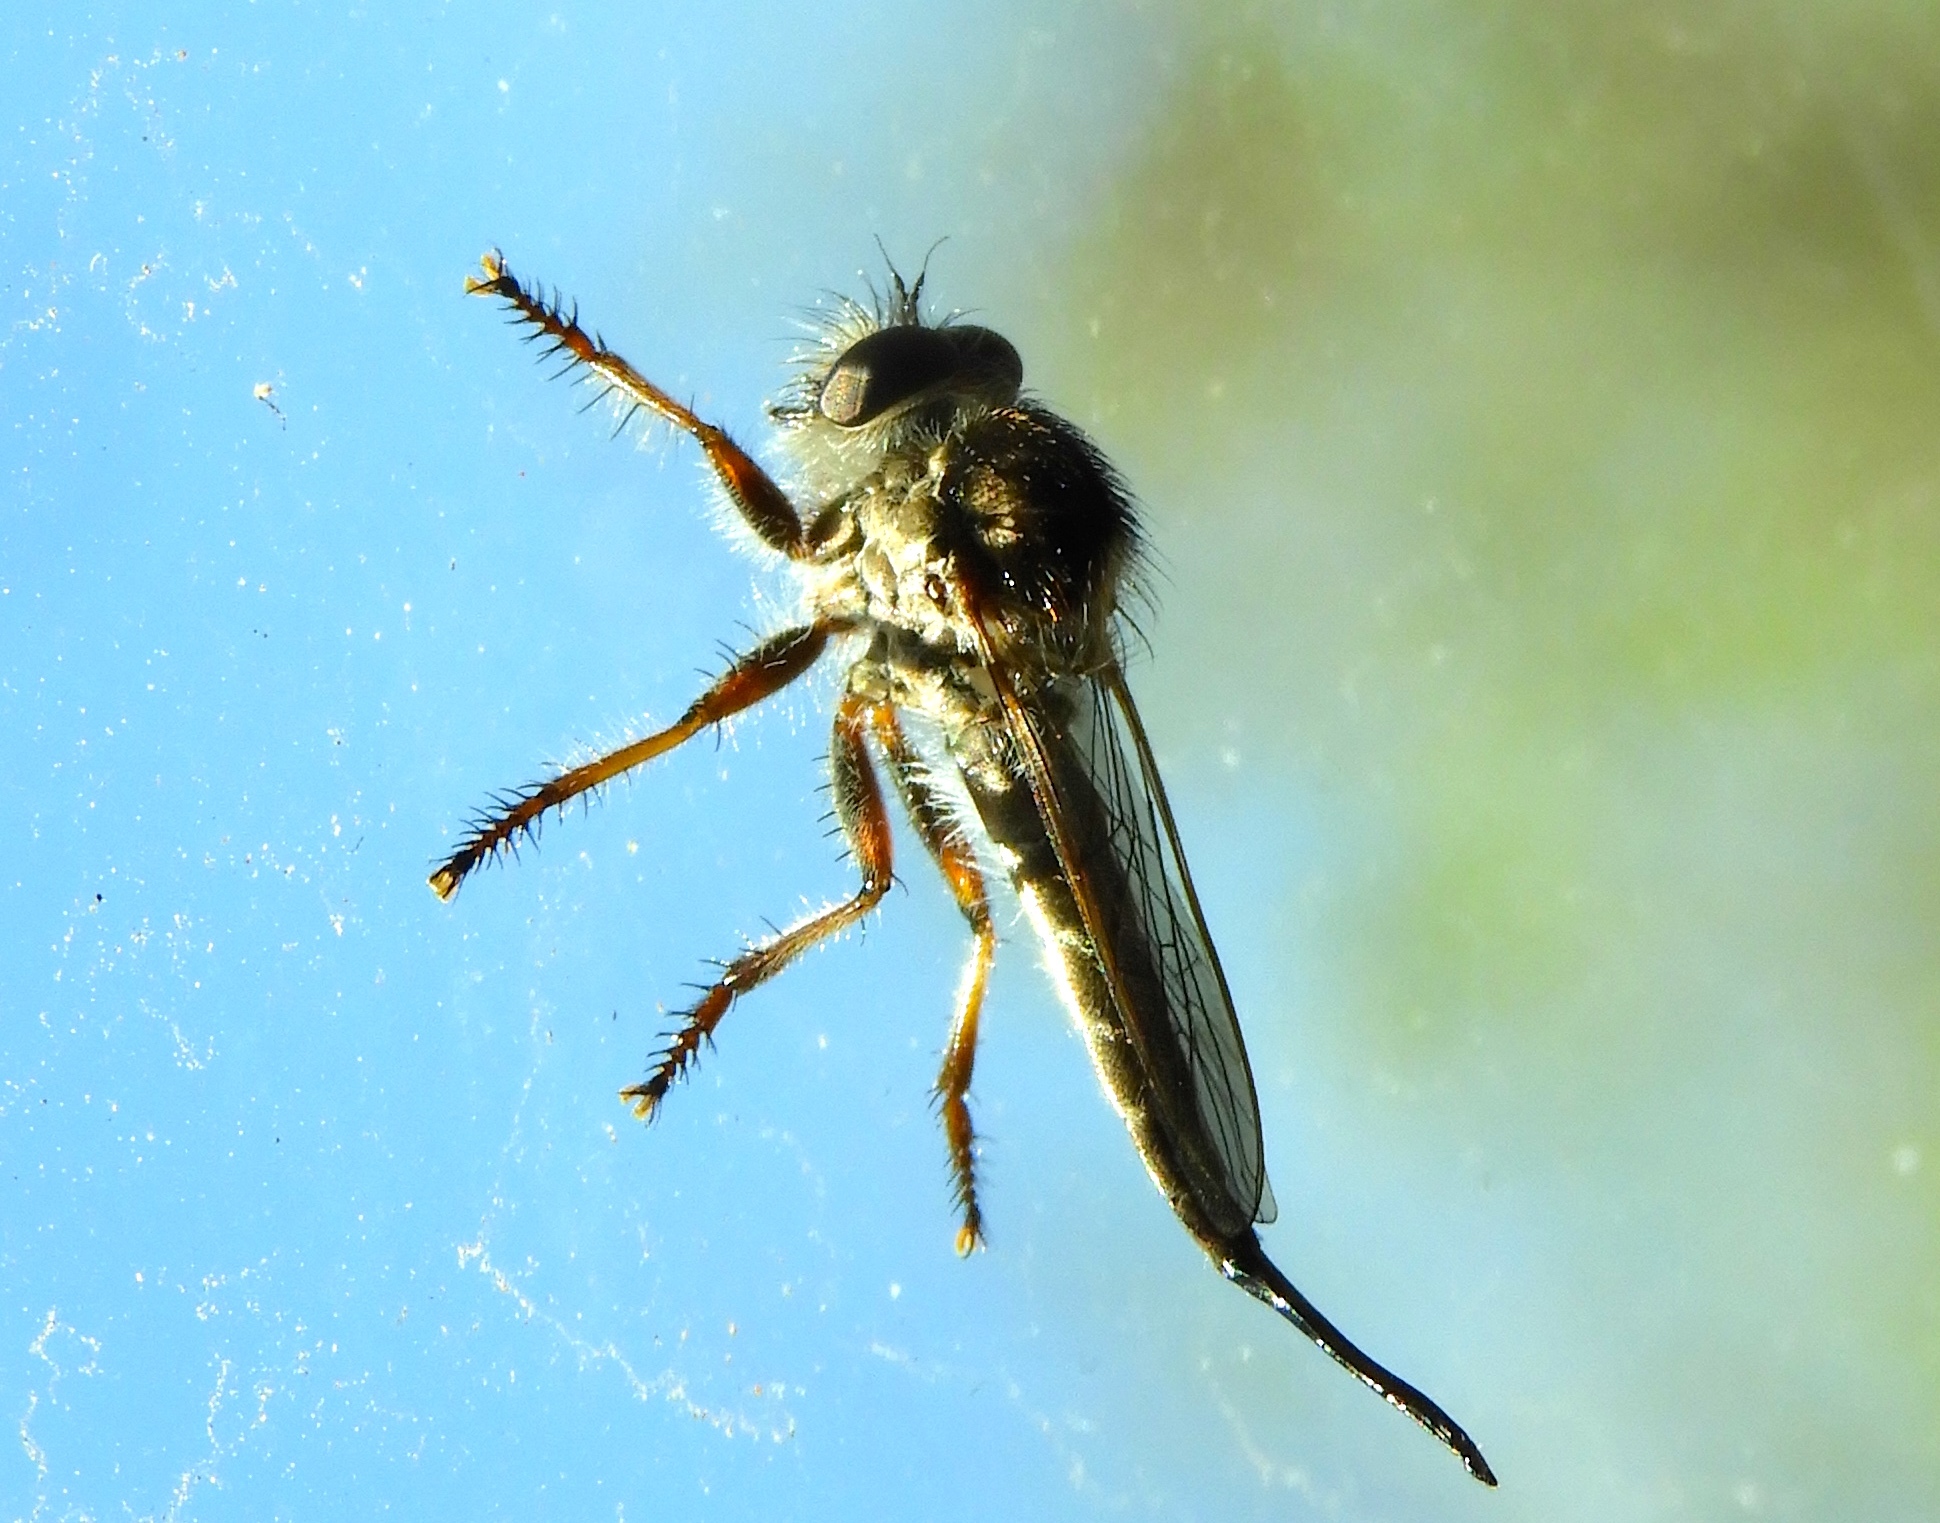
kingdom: Animalia
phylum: Arthropoda
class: Insecta
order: Diptera
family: Asilidae
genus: Efferia
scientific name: Efferia
